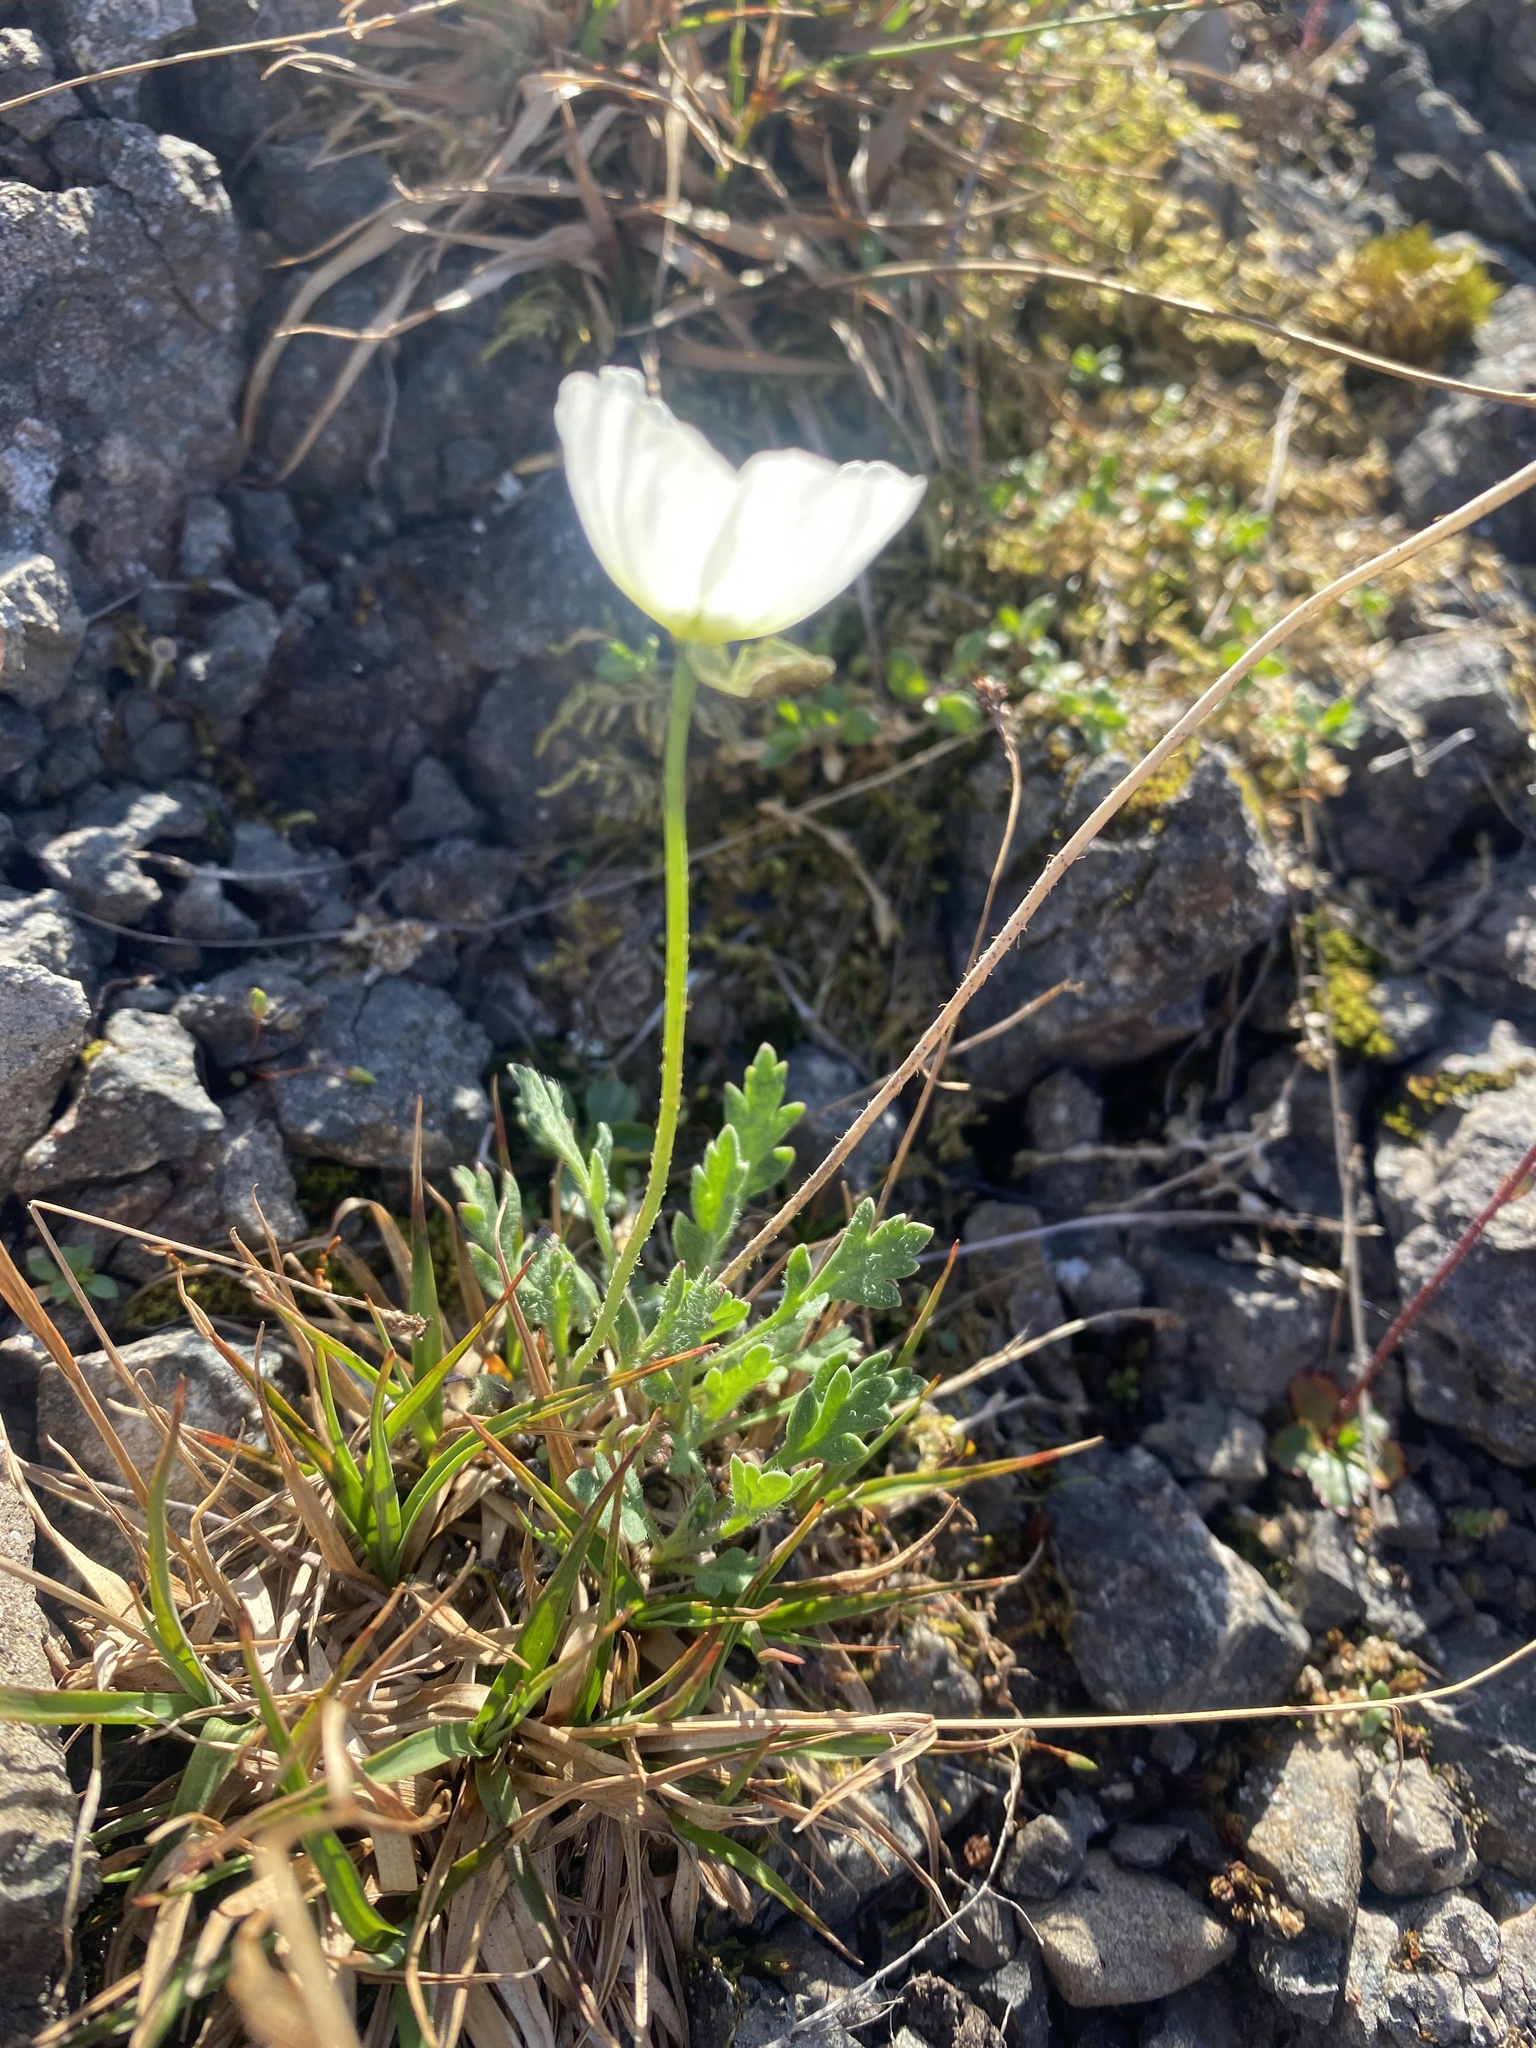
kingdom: Plantae
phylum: Tracheophyta
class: Magnoliopsida
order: Ranunculales
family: Papaveraceae
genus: Papaver
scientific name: Papaver variegatum
